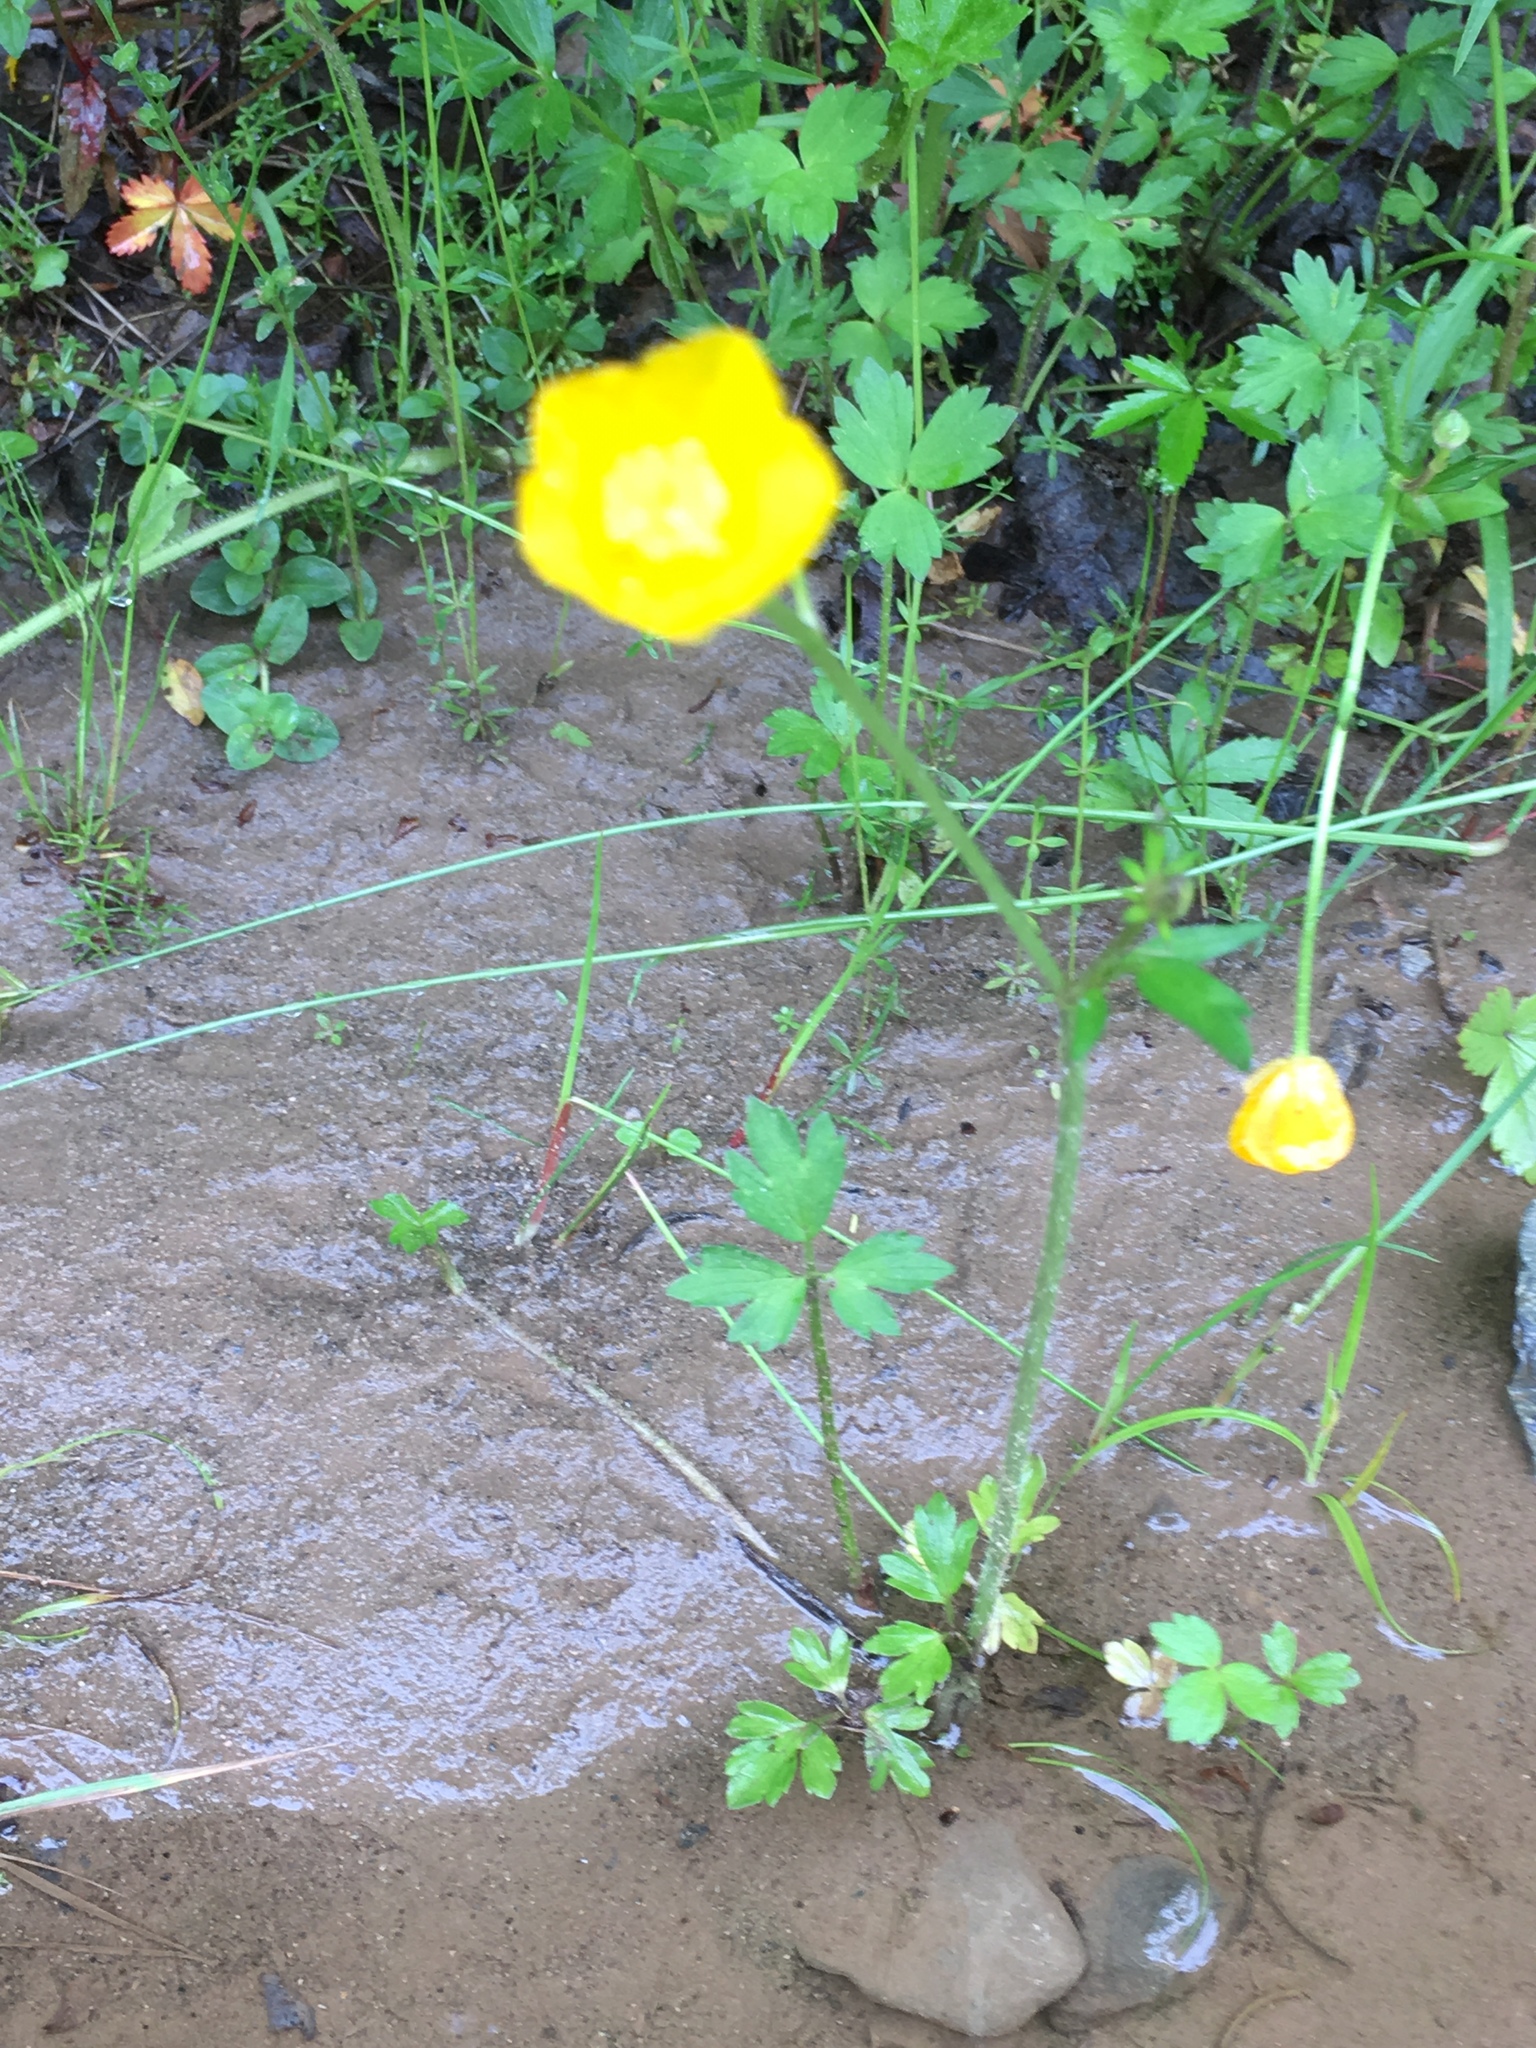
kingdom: Plantae
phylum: Tracheophyta
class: Magnoliopsida
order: Ranunculales
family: Ranunculaceae
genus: Ranunculus
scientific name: Ranunculus repens
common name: Creeping buttercup
